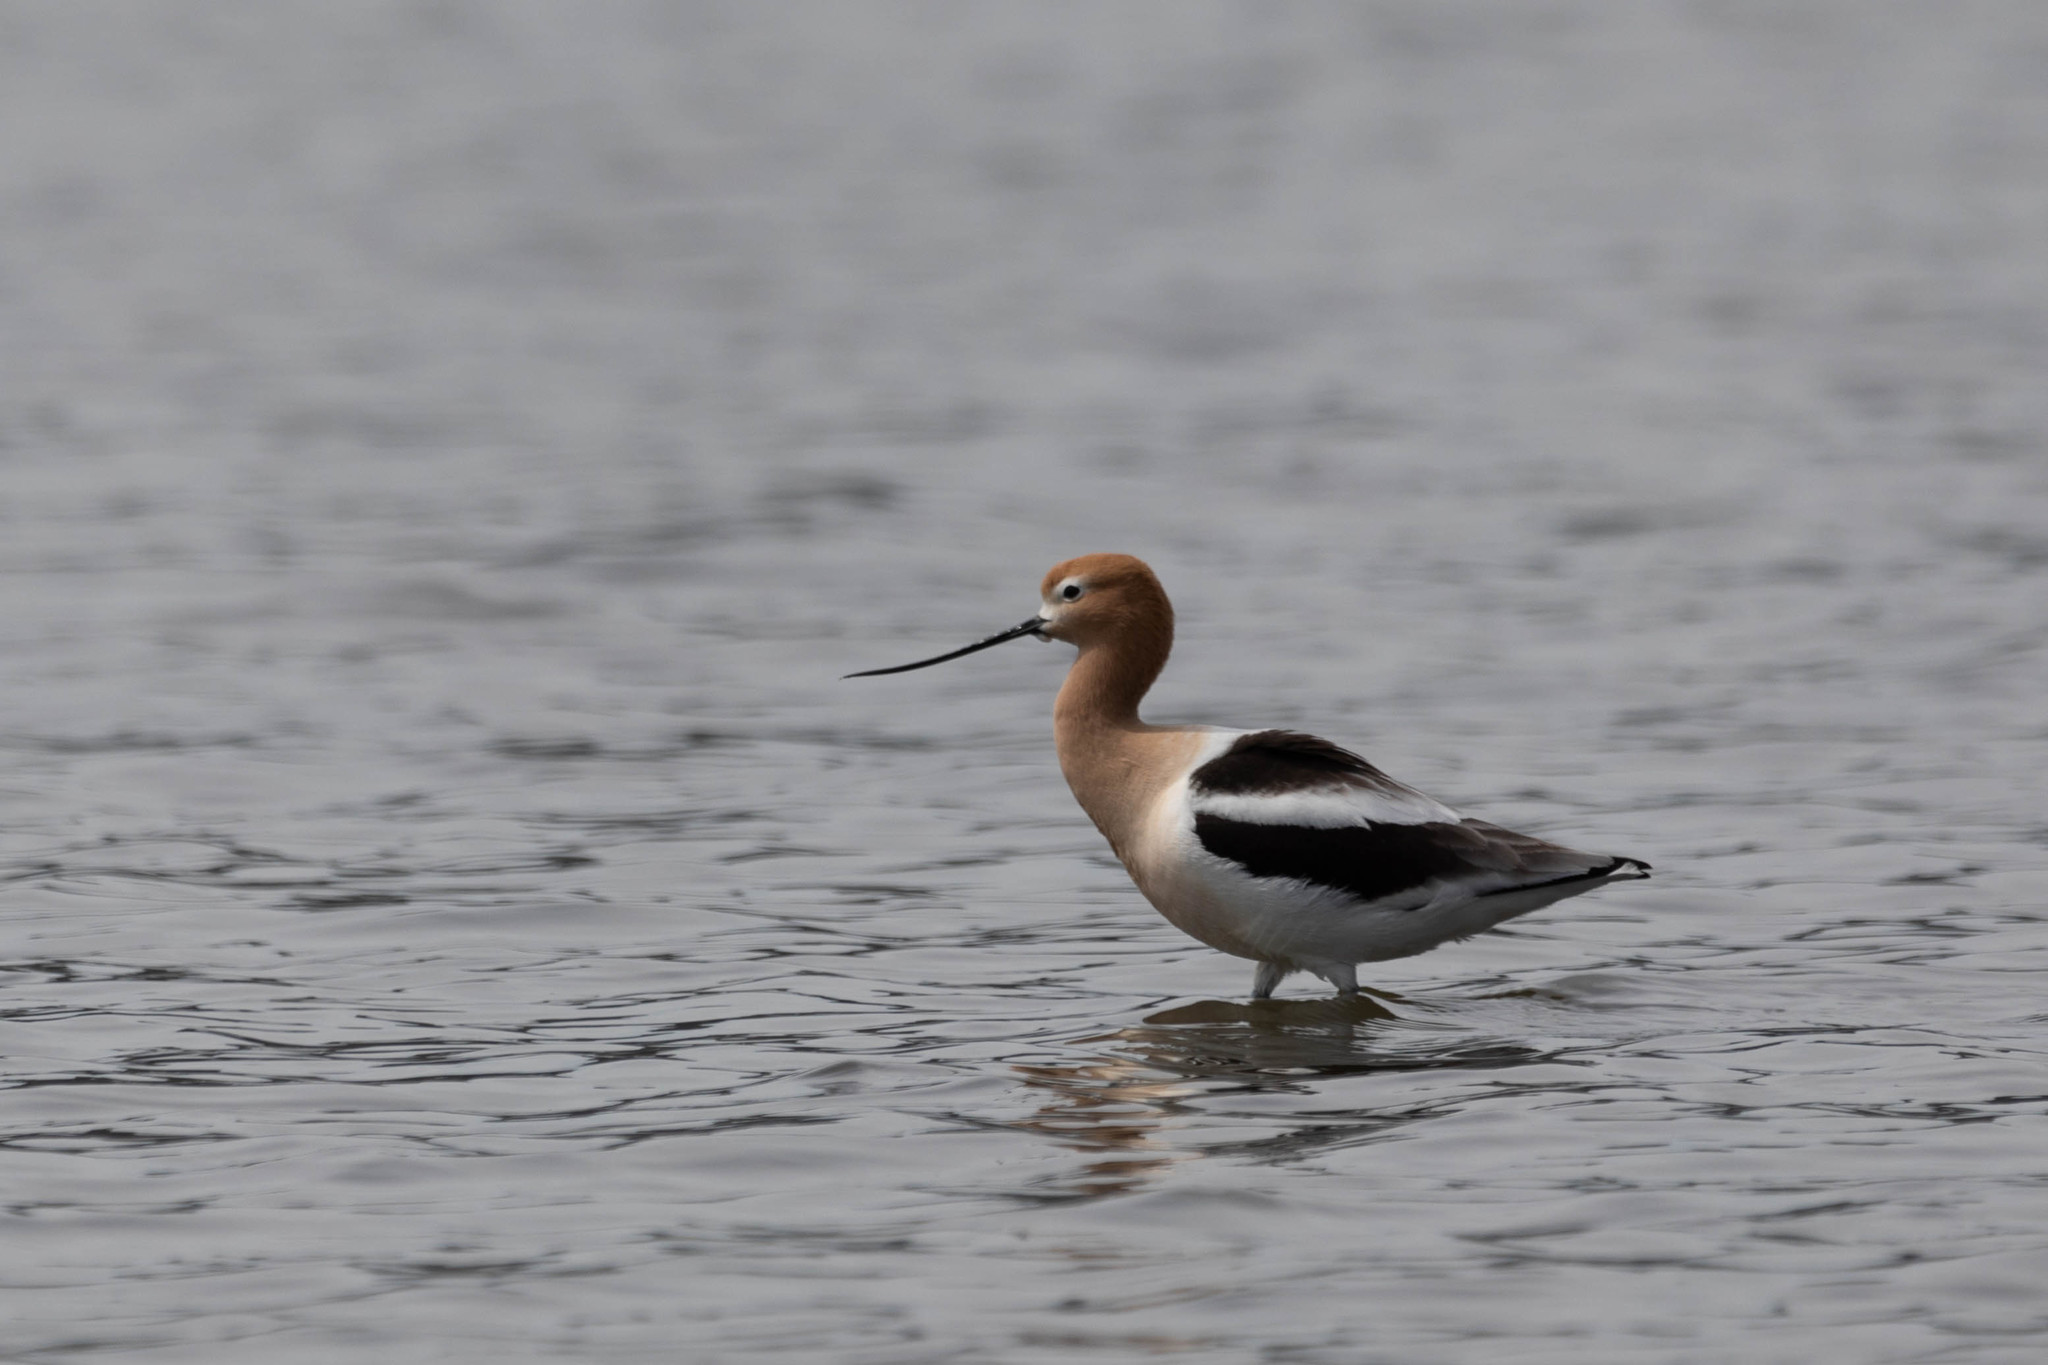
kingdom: Animalia
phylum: Chordata
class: Aves
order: Charadriiformes
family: Recurvirostridae
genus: Recurvirostra
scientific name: Recurvirostra americana
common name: American avocet
